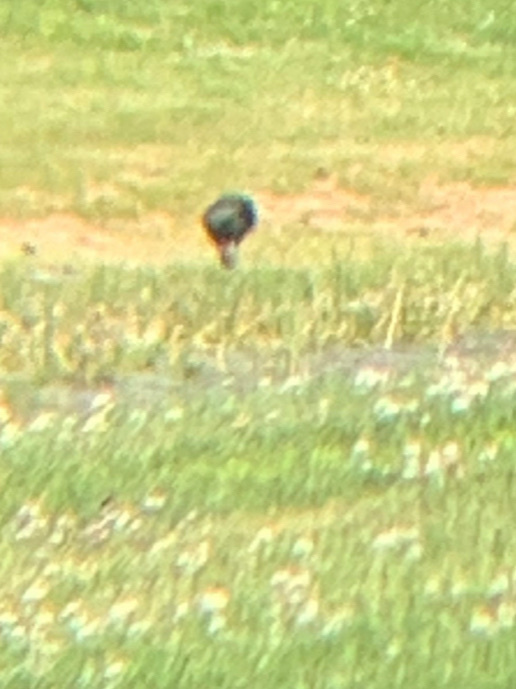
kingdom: Animalia
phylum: Chordata
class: Aves
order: Pelecaniformes
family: Threskiornithidae
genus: Plegadis
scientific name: Plegadis falcinellus
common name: Glossy ibis
